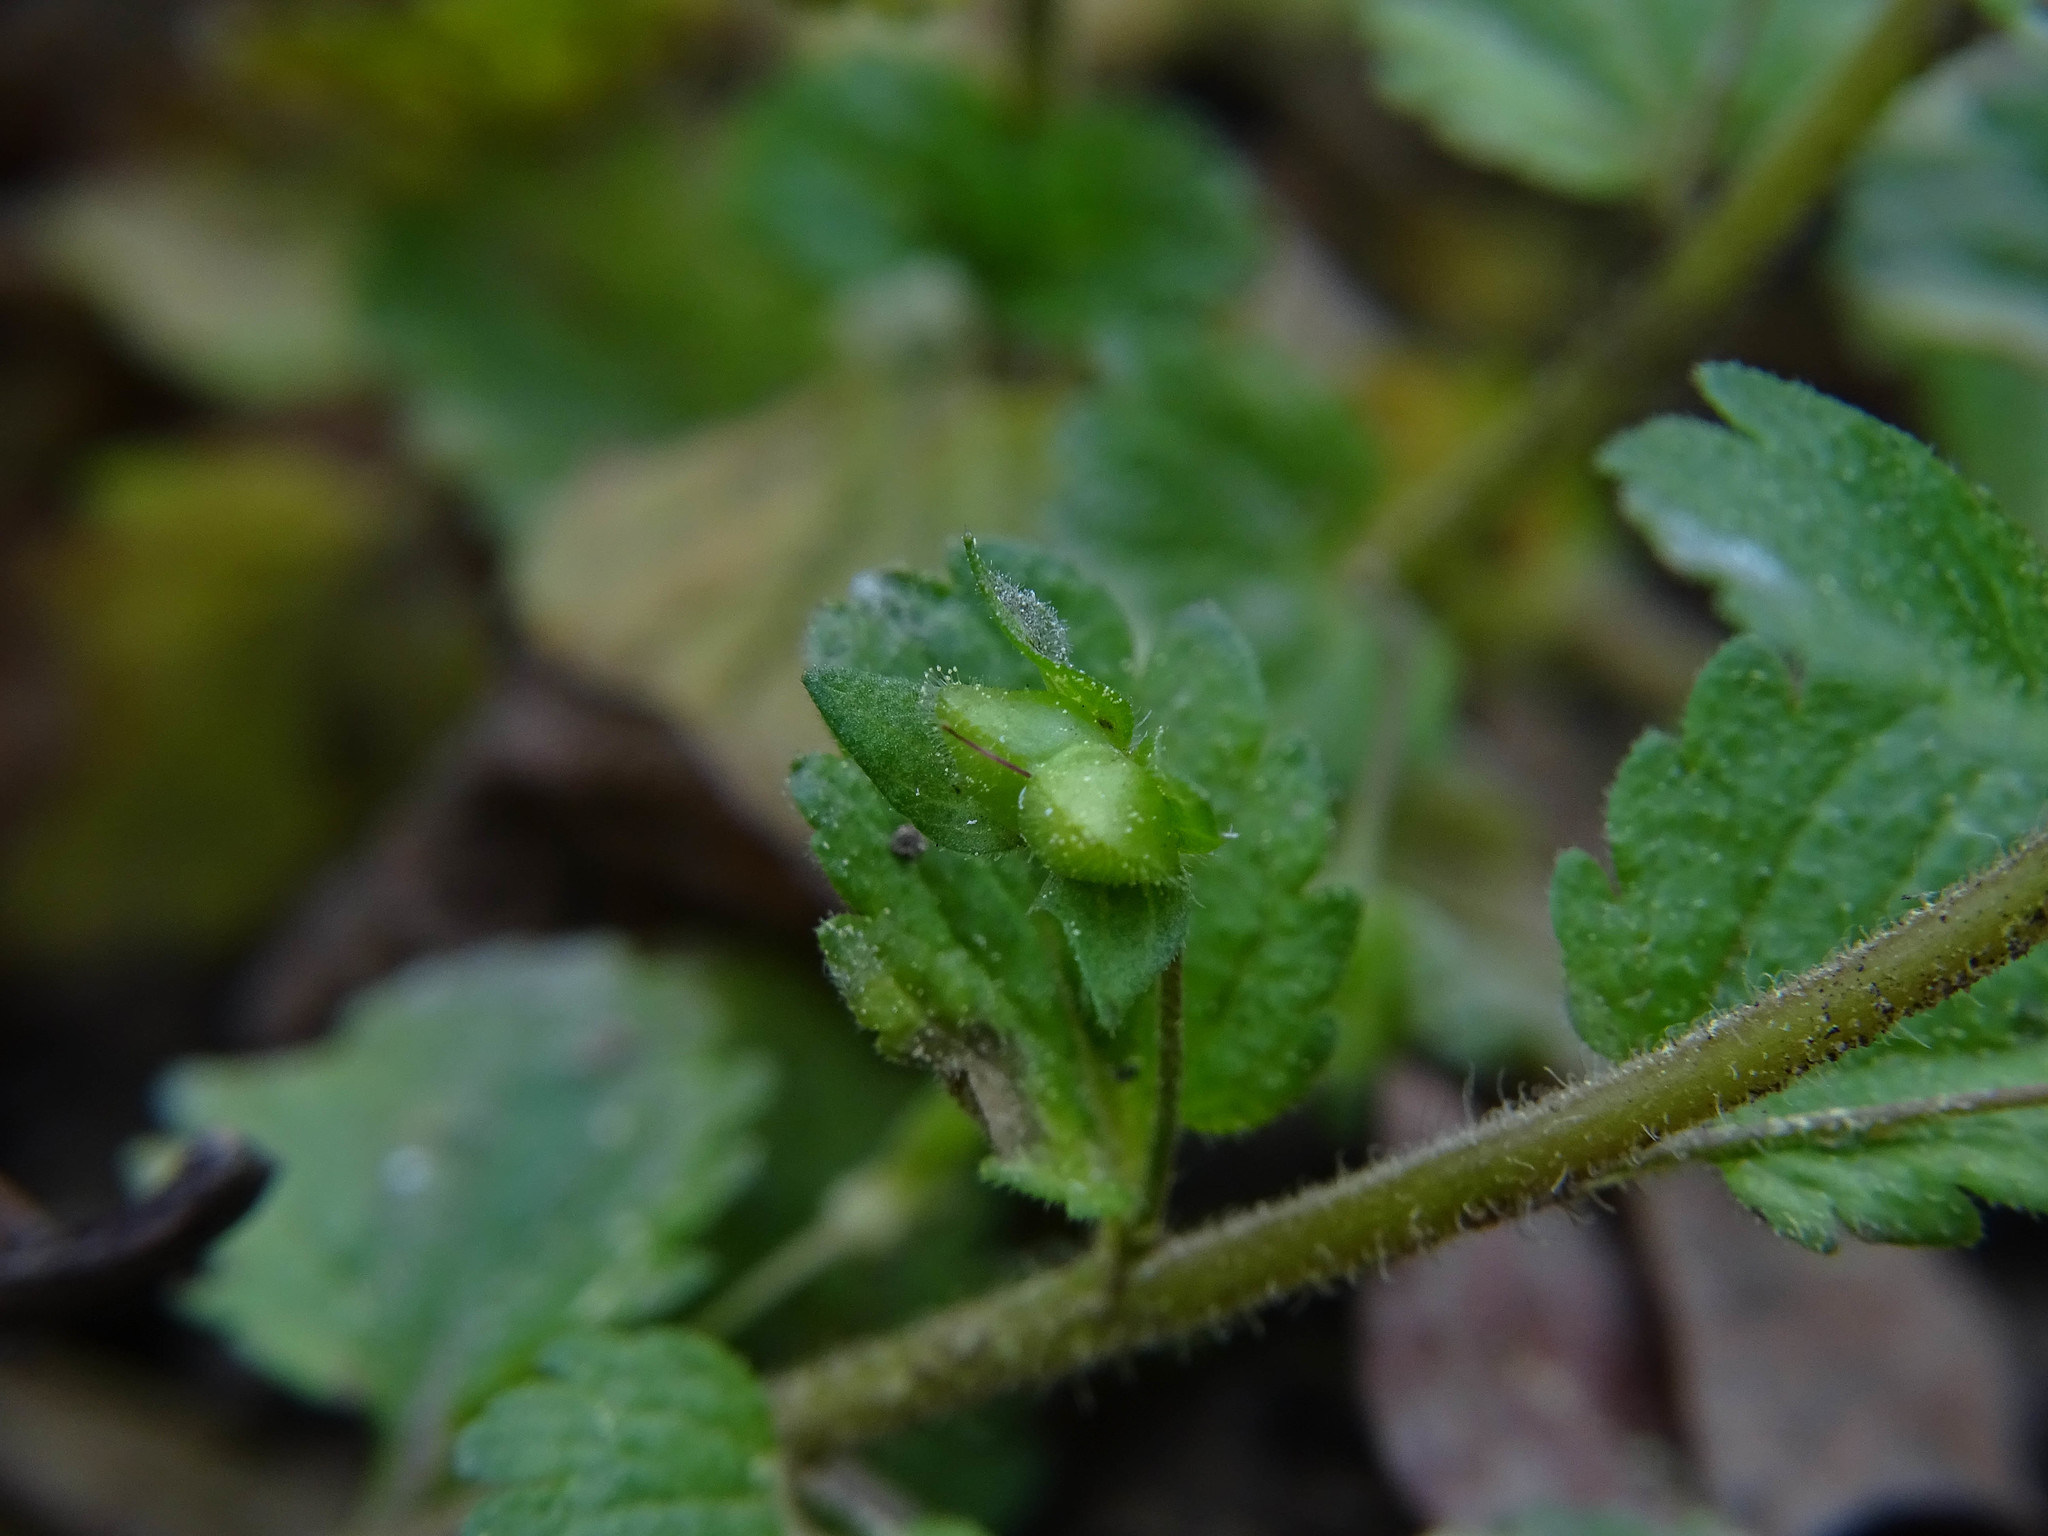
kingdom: Plantae
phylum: Tracheophyta
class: Magnoliopsida
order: Lamiales
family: Plantaginaceae
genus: Veronica
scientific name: Veronica persica
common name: Common field-speedwell
